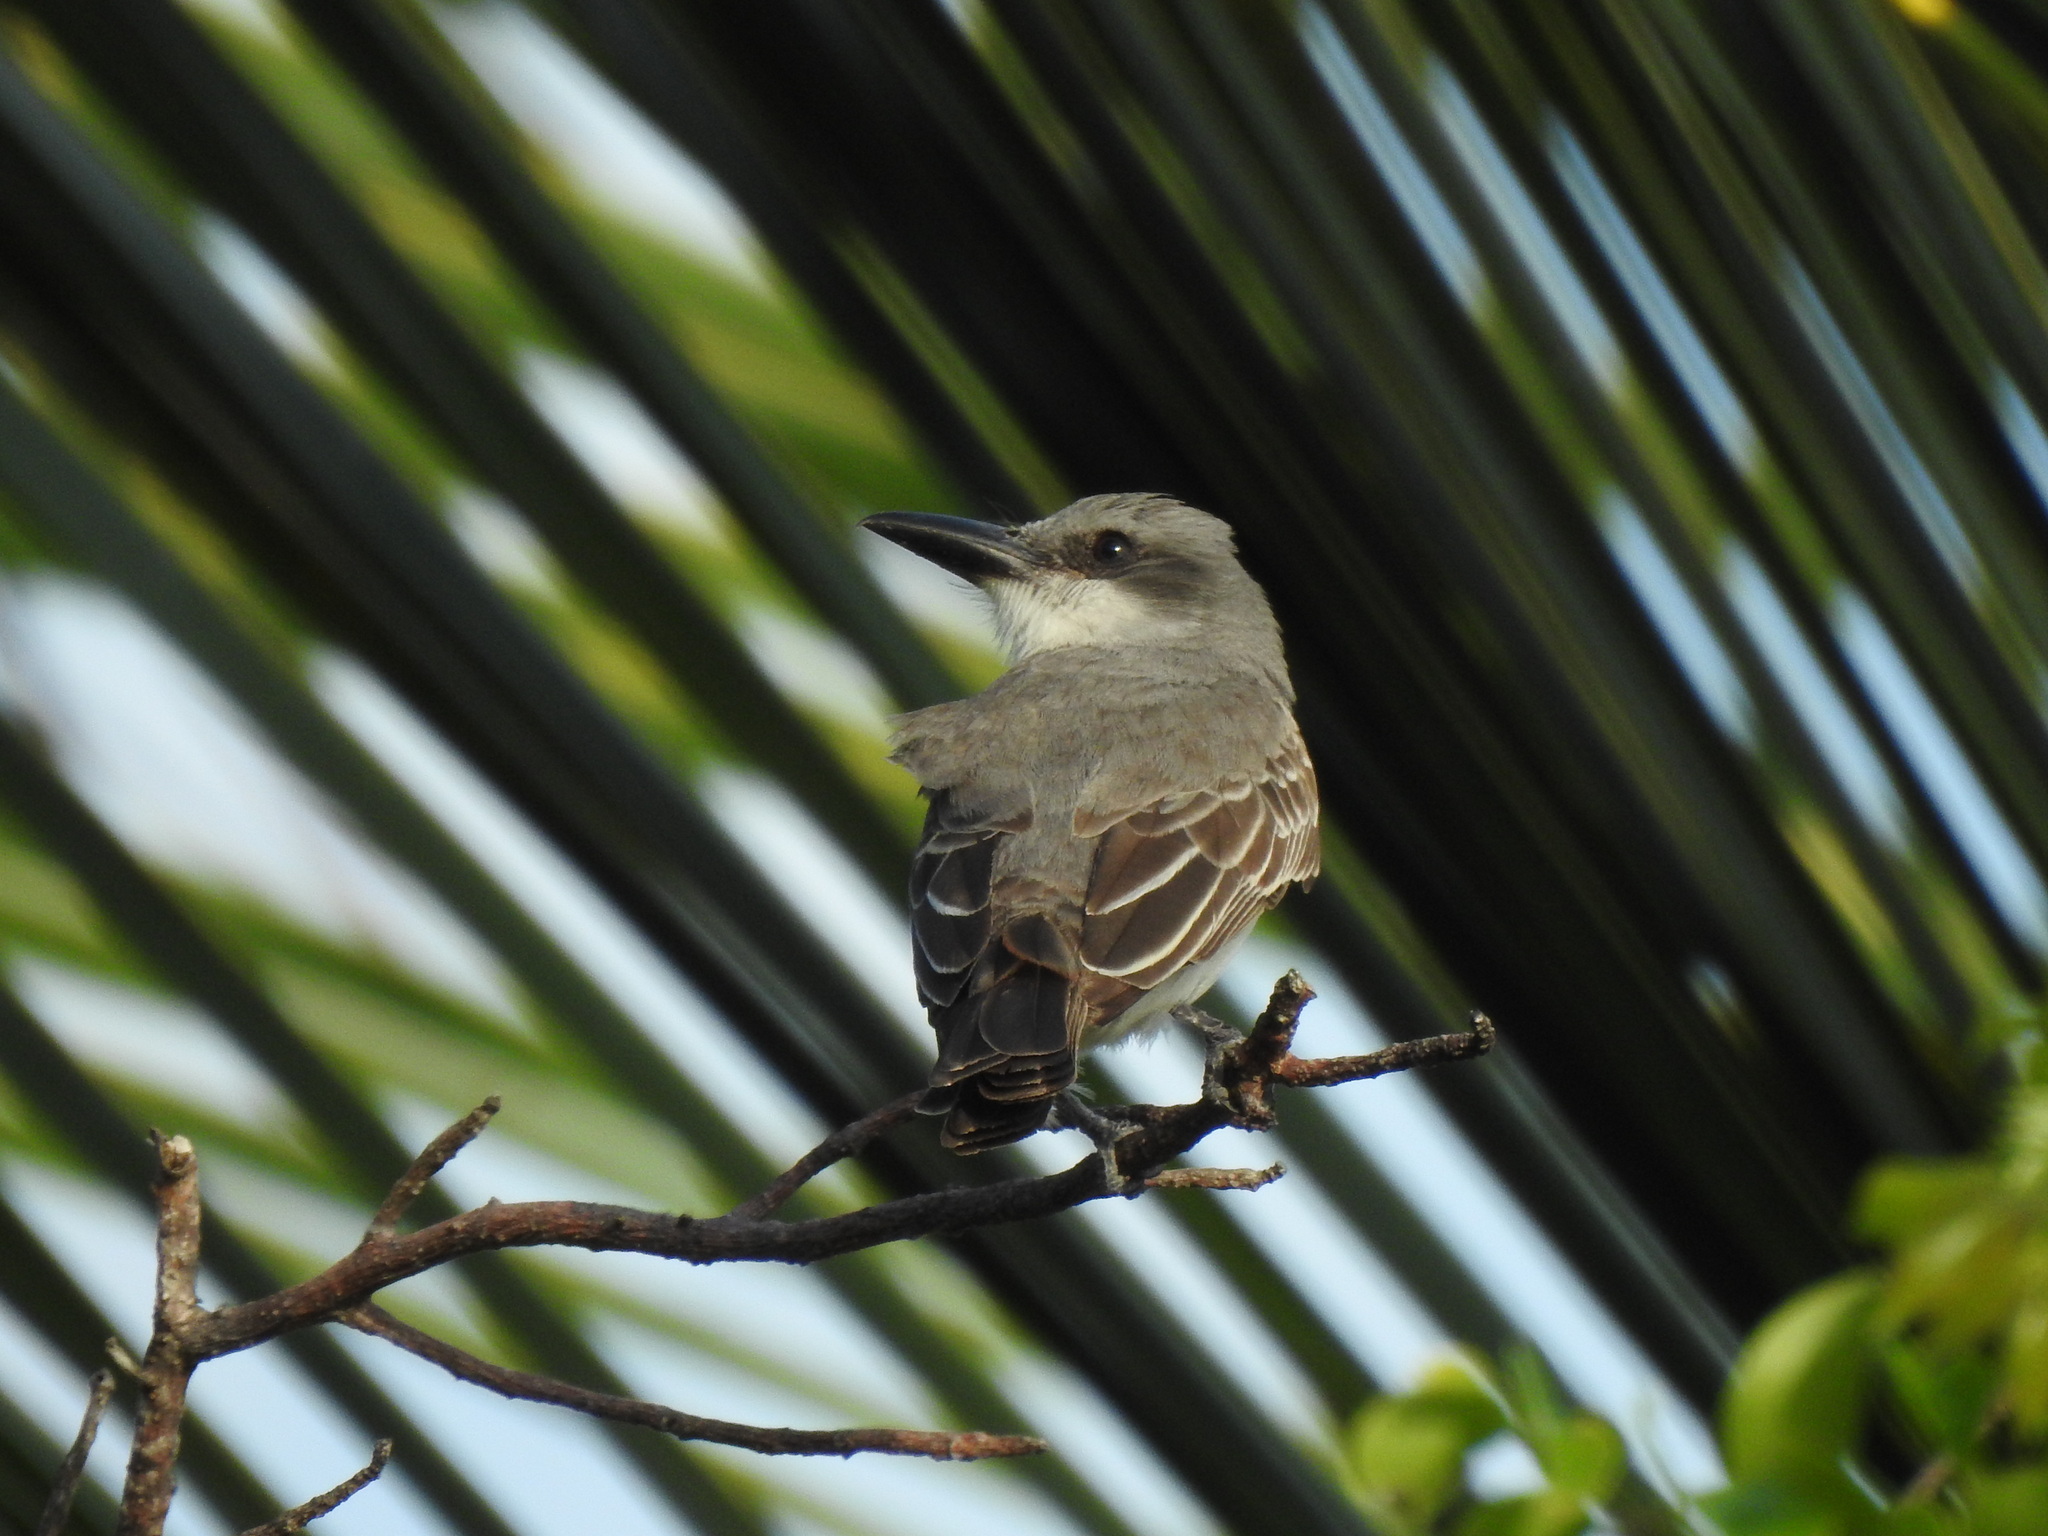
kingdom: Animalia
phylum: Chordata
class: Aves
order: Passeriformes
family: Tyrannidae
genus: Tyrannus
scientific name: Tyrannus dominicensis
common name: Gray kingbird
